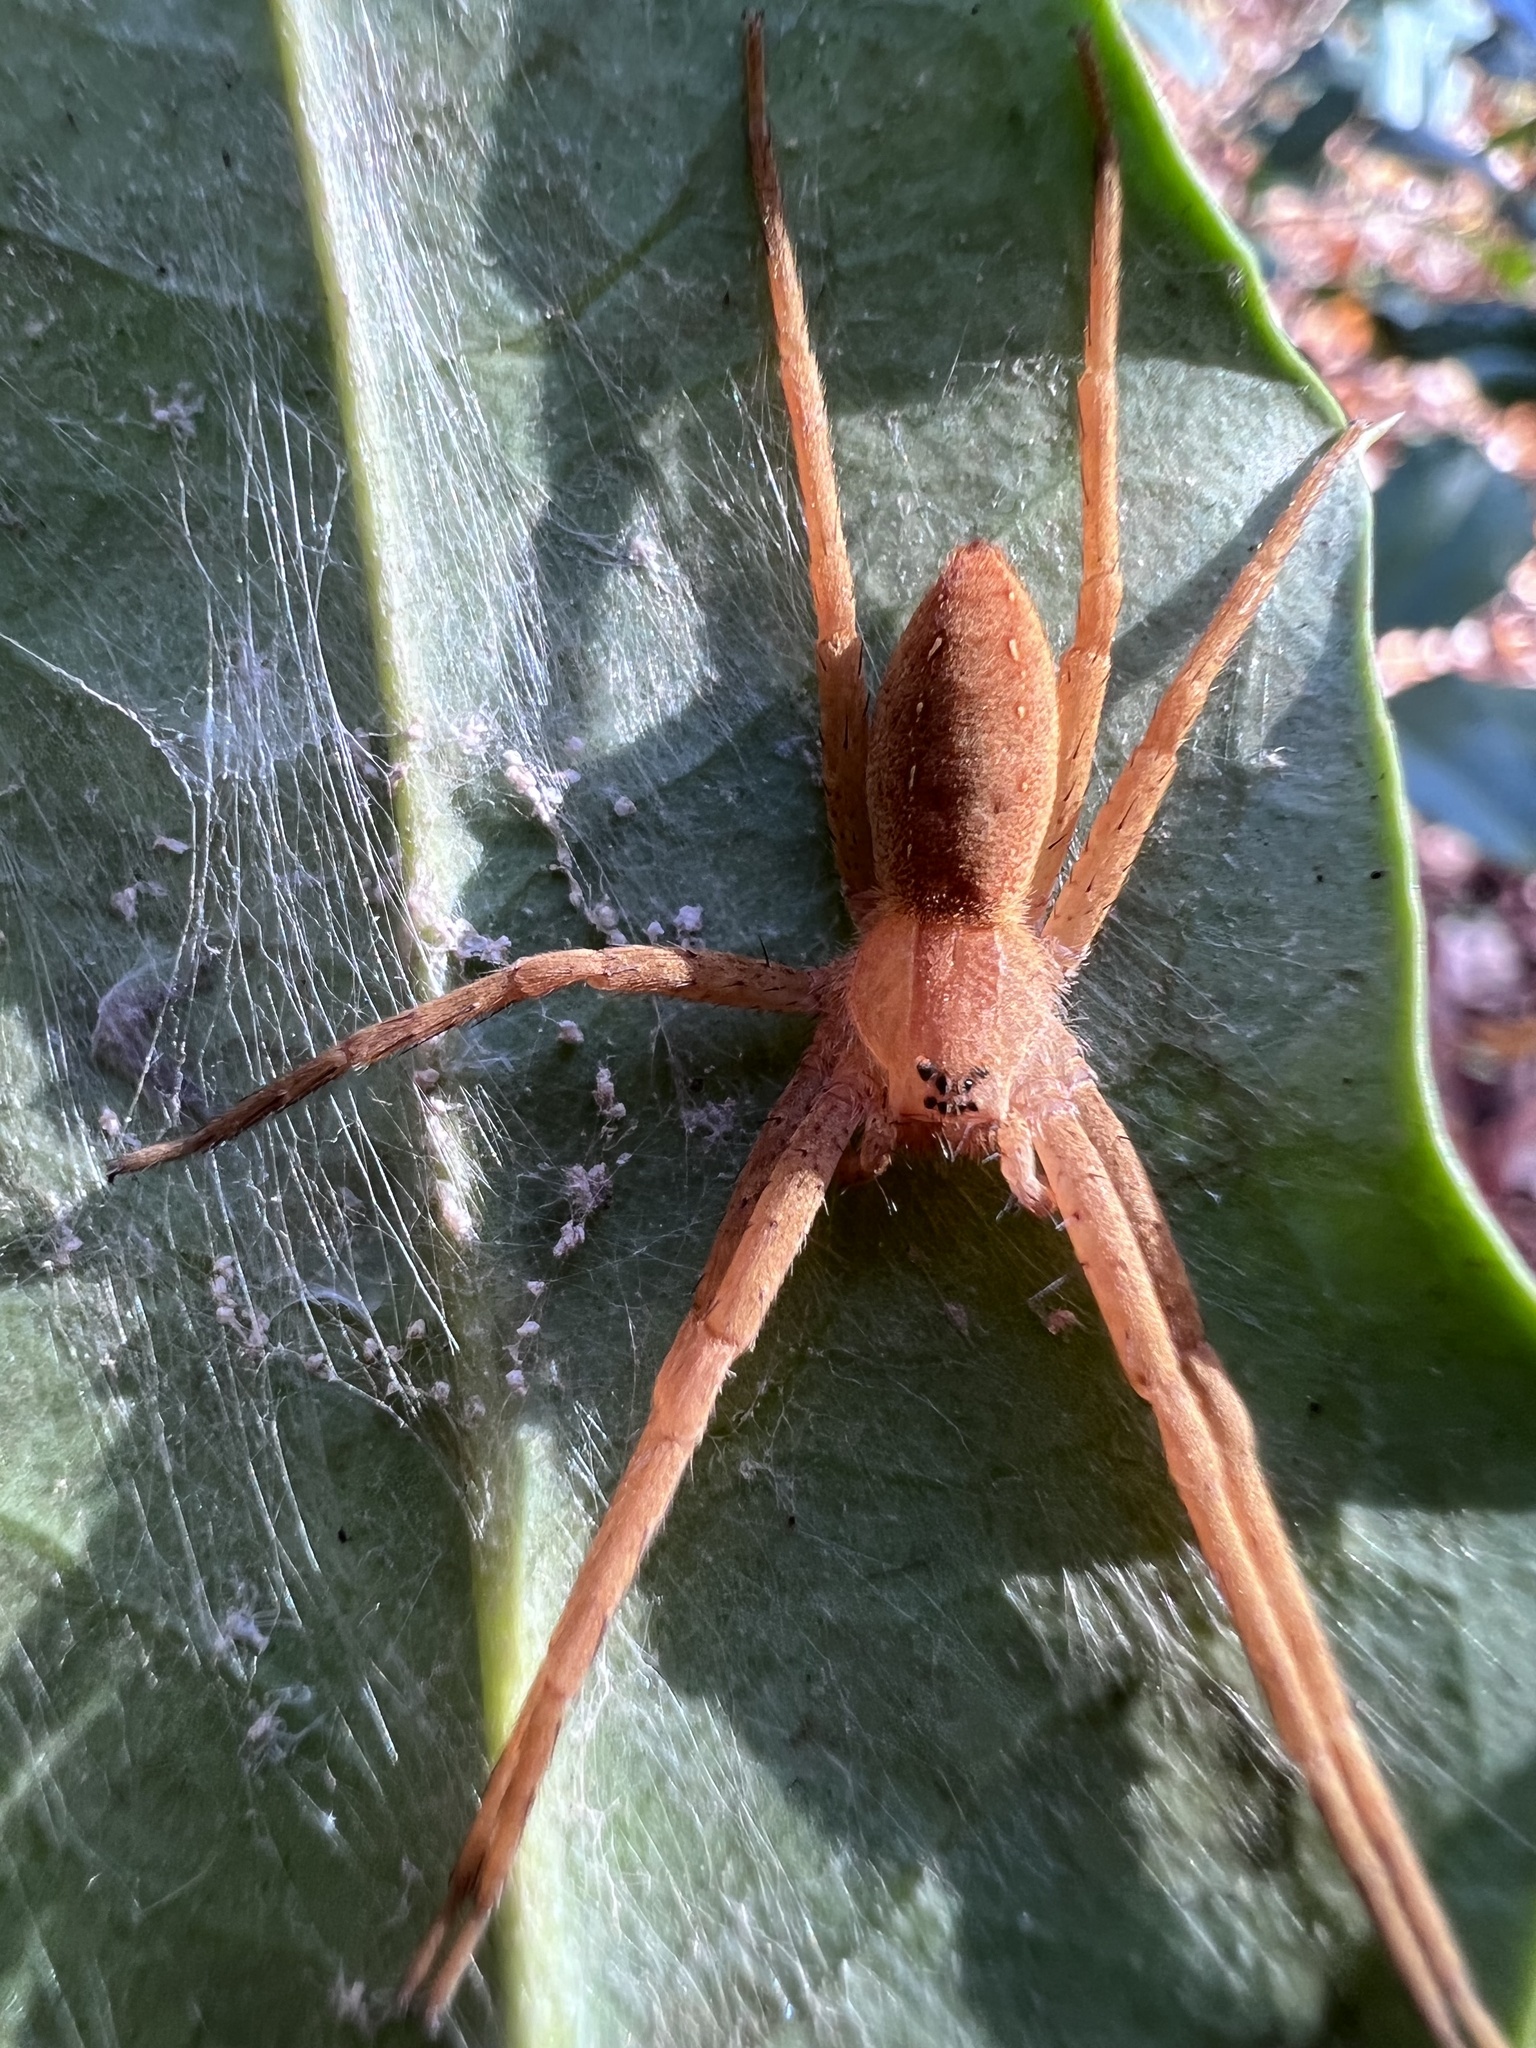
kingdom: Animalia
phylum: Arthropoda
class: Arachnida
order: Araneae
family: Pisauridae
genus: Pisaurina
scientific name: Pisaurina mira
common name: American nursery web spider
